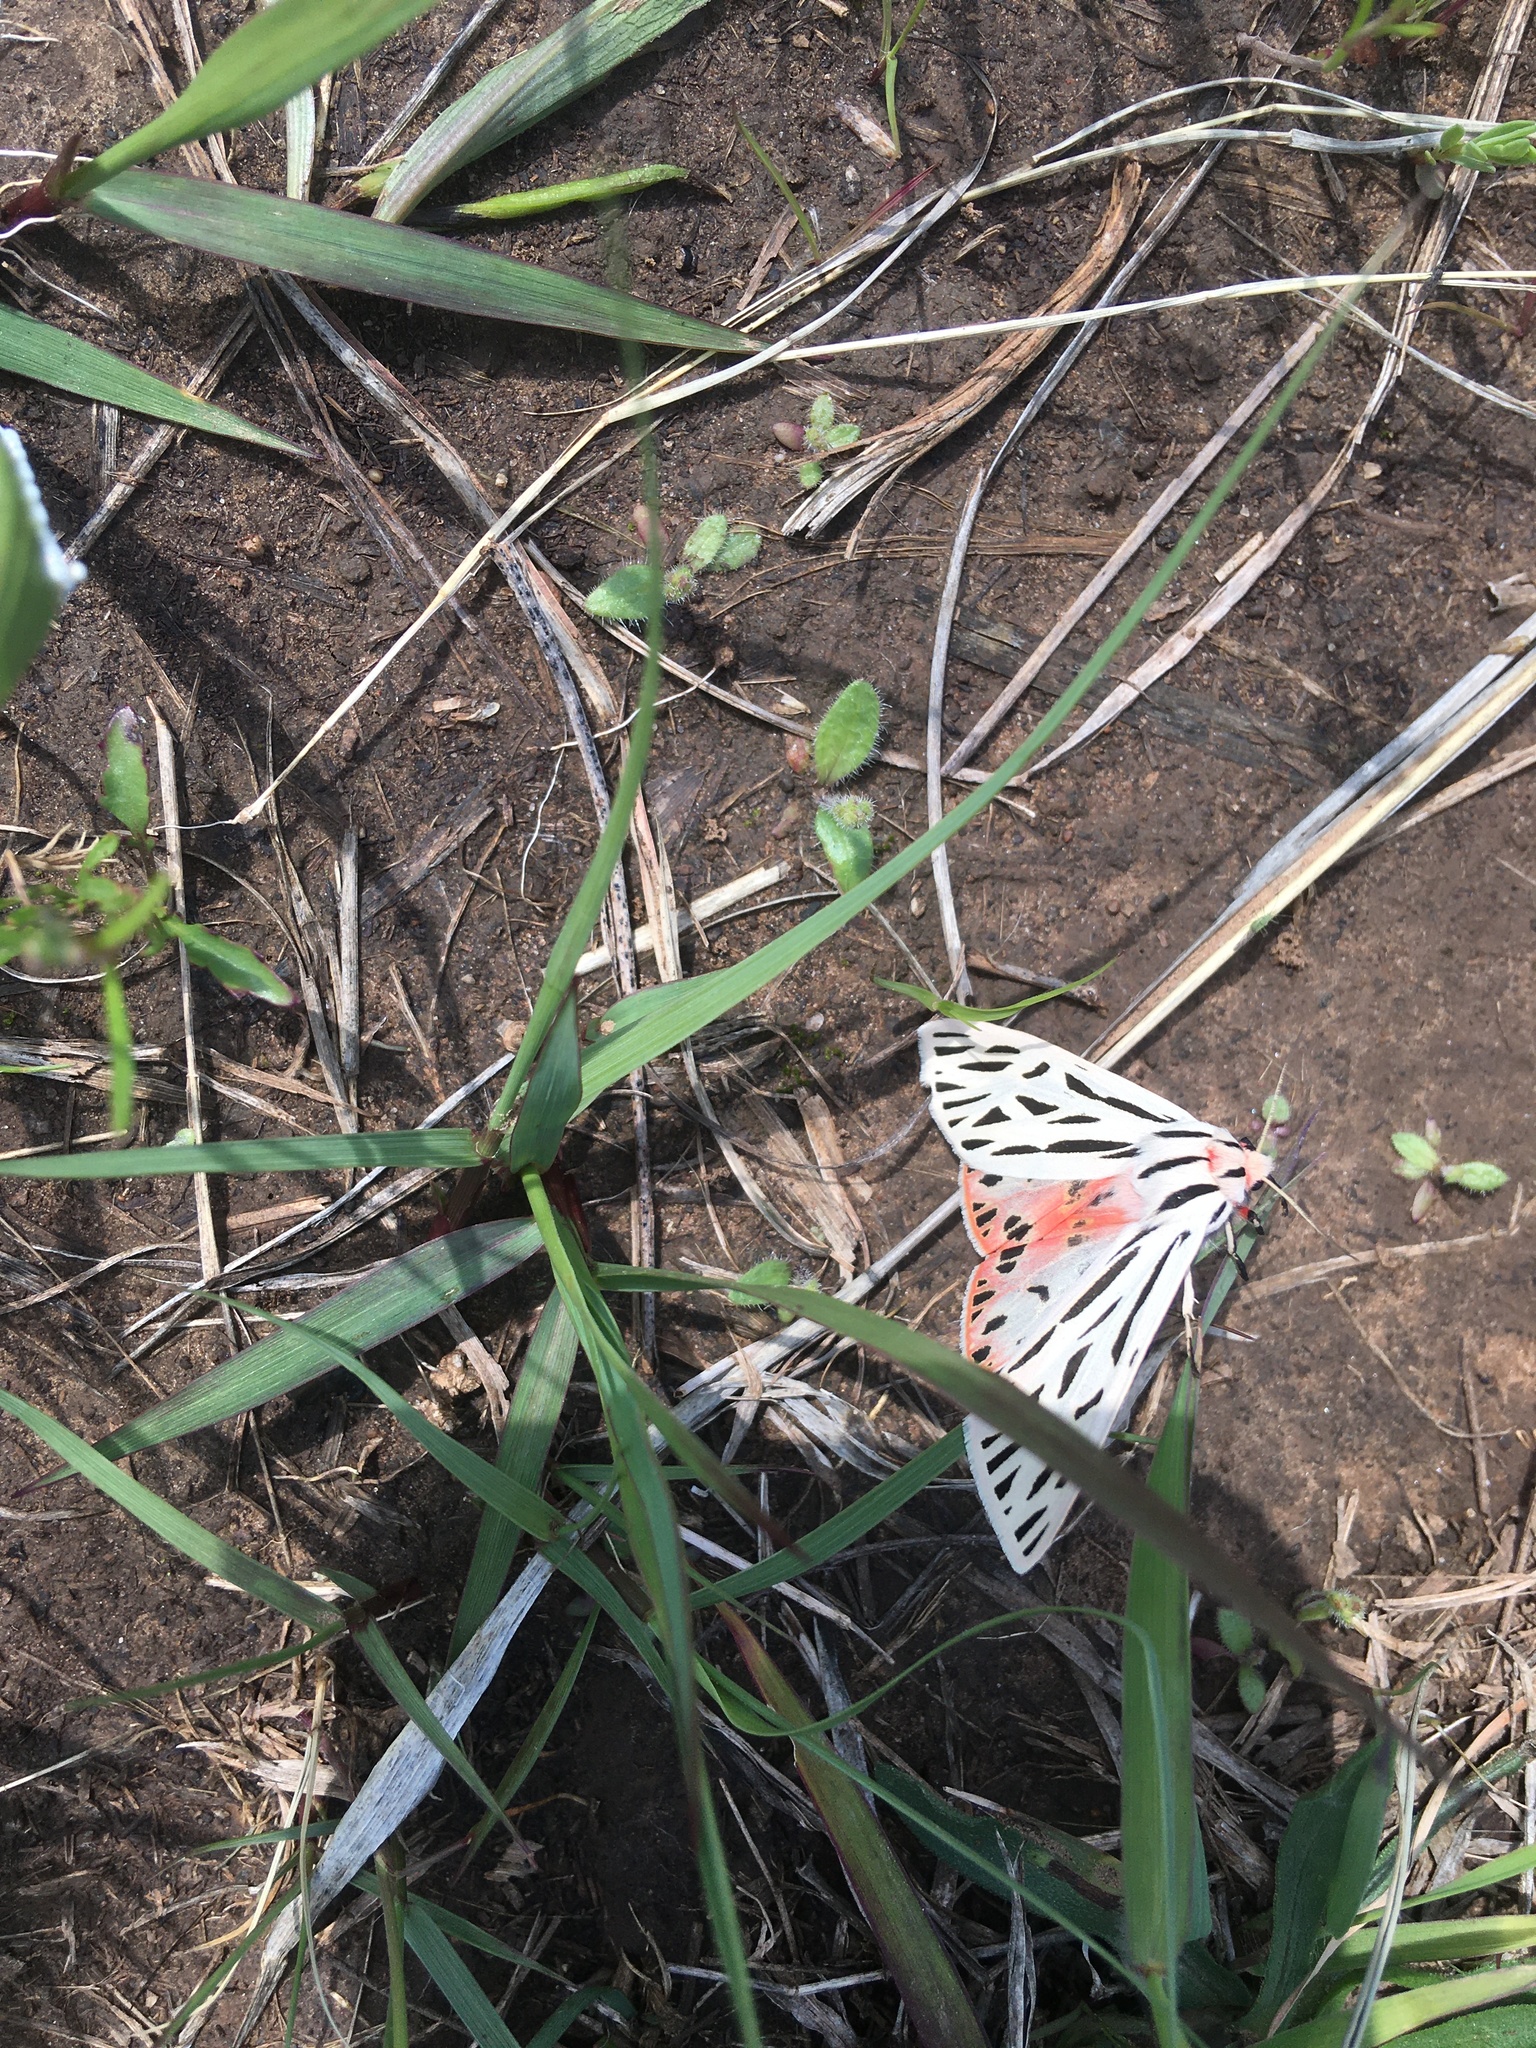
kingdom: Animalia
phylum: Arthropoda
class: Insecta
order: Lepidoptera
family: Erebidae
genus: Apantesis
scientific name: Apantesis arge
